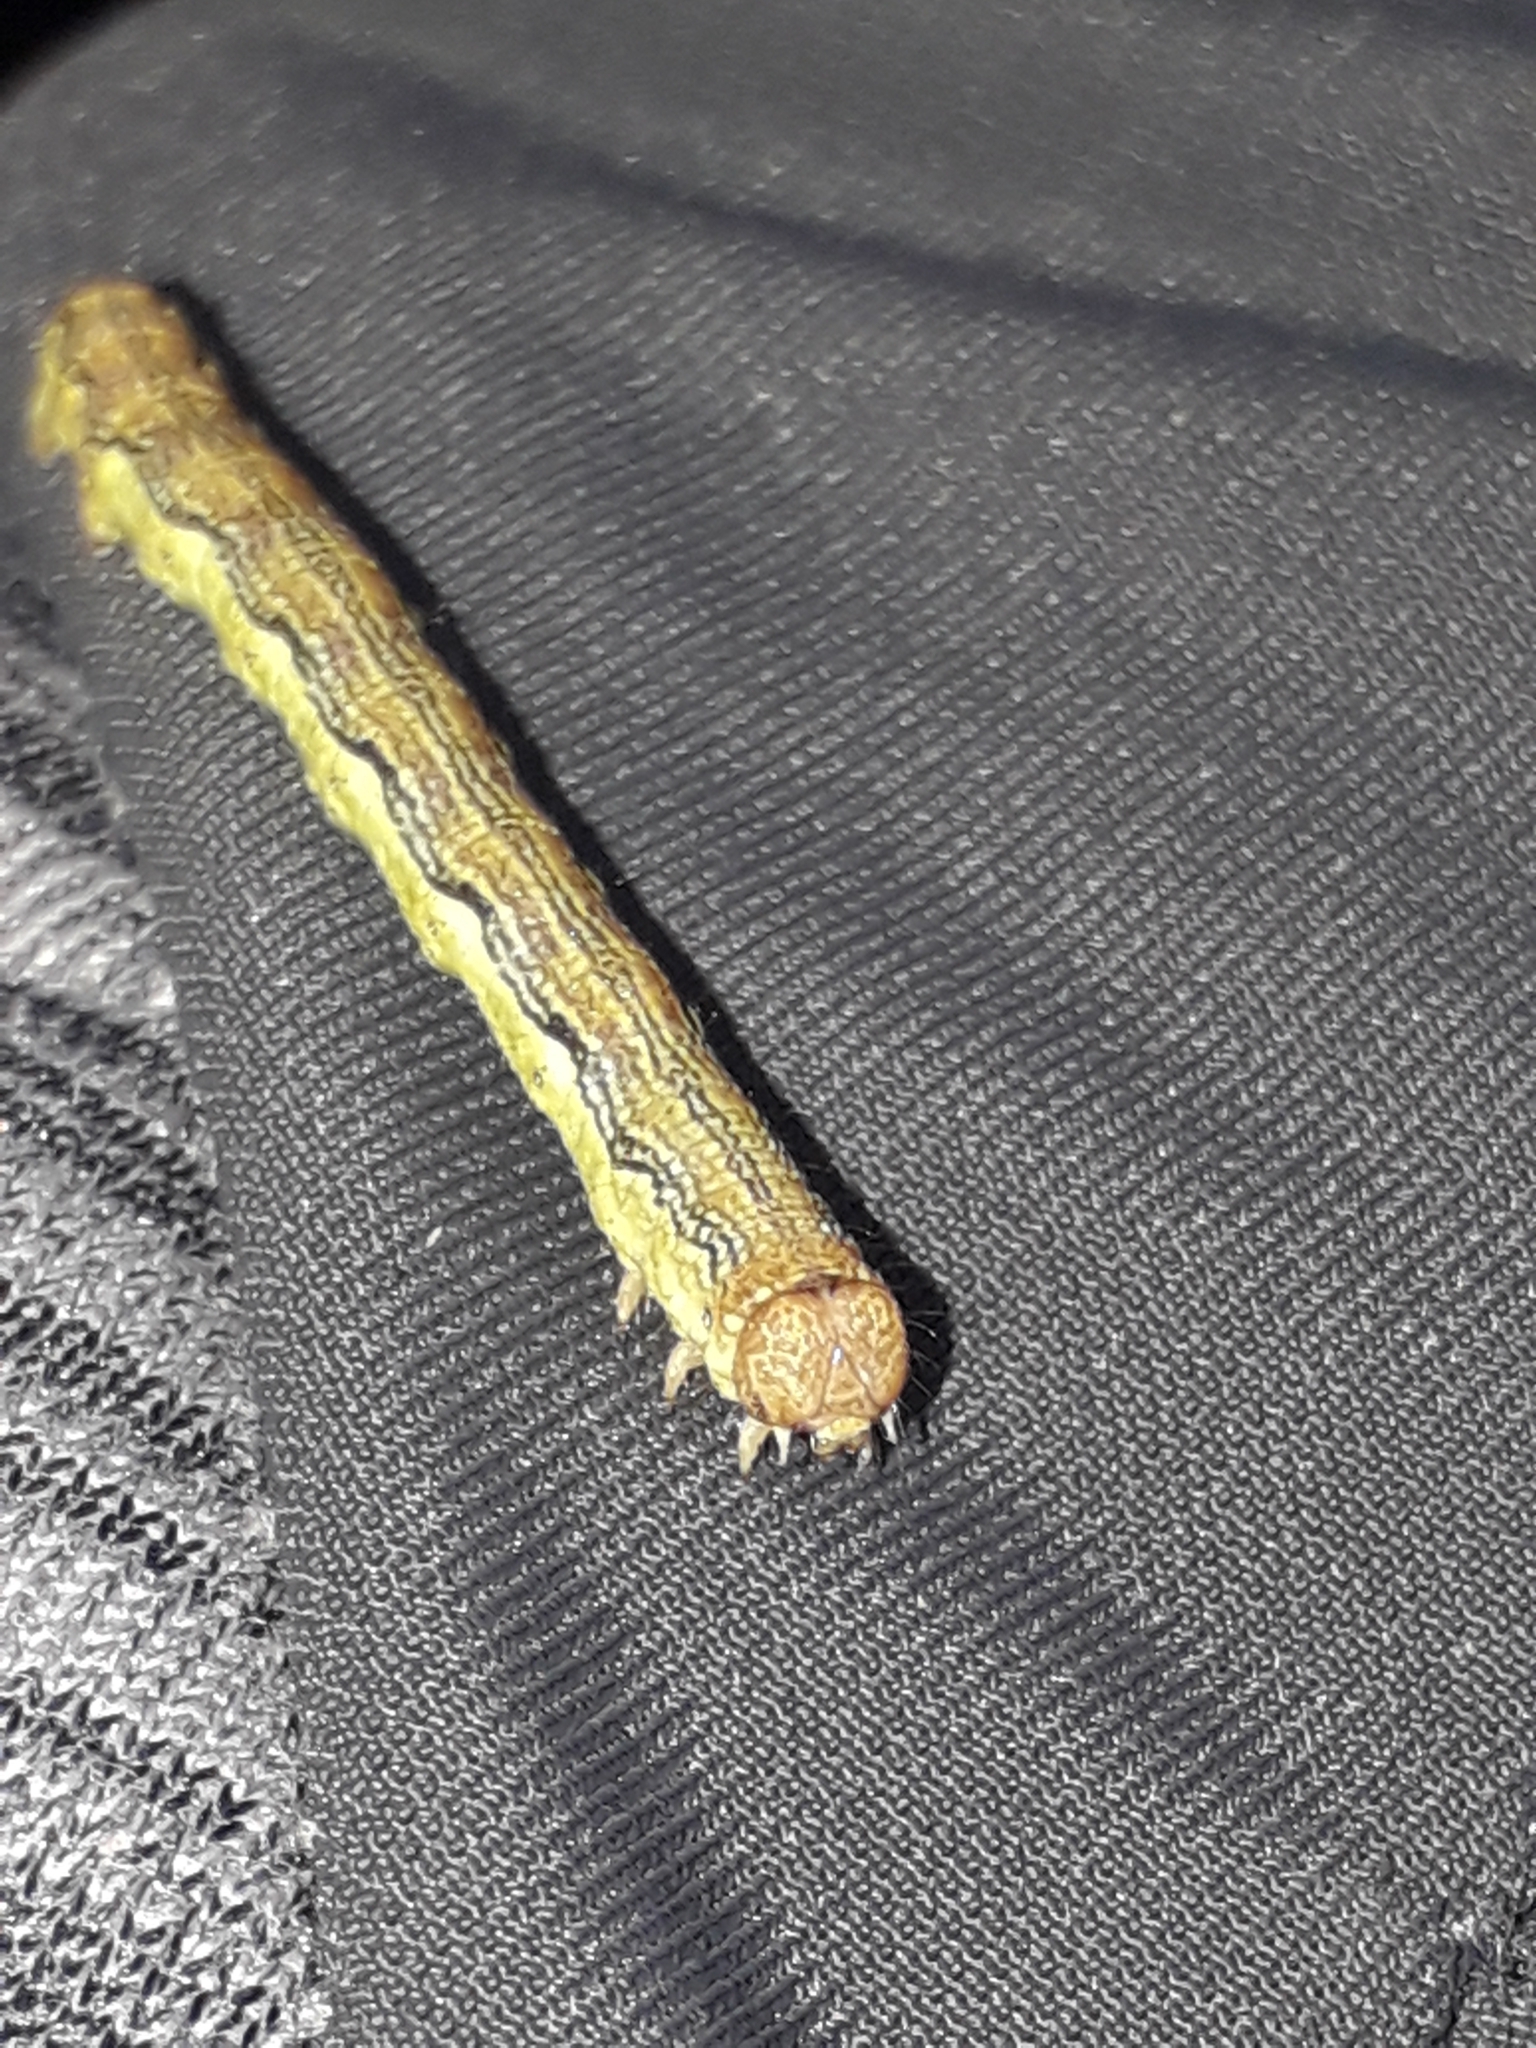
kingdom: Animalia
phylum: Arthropoda
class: Insecta
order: Lepidoptera
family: Geometridae
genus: Erannis
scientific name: Erannis defoliaria
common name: Mottled umber
